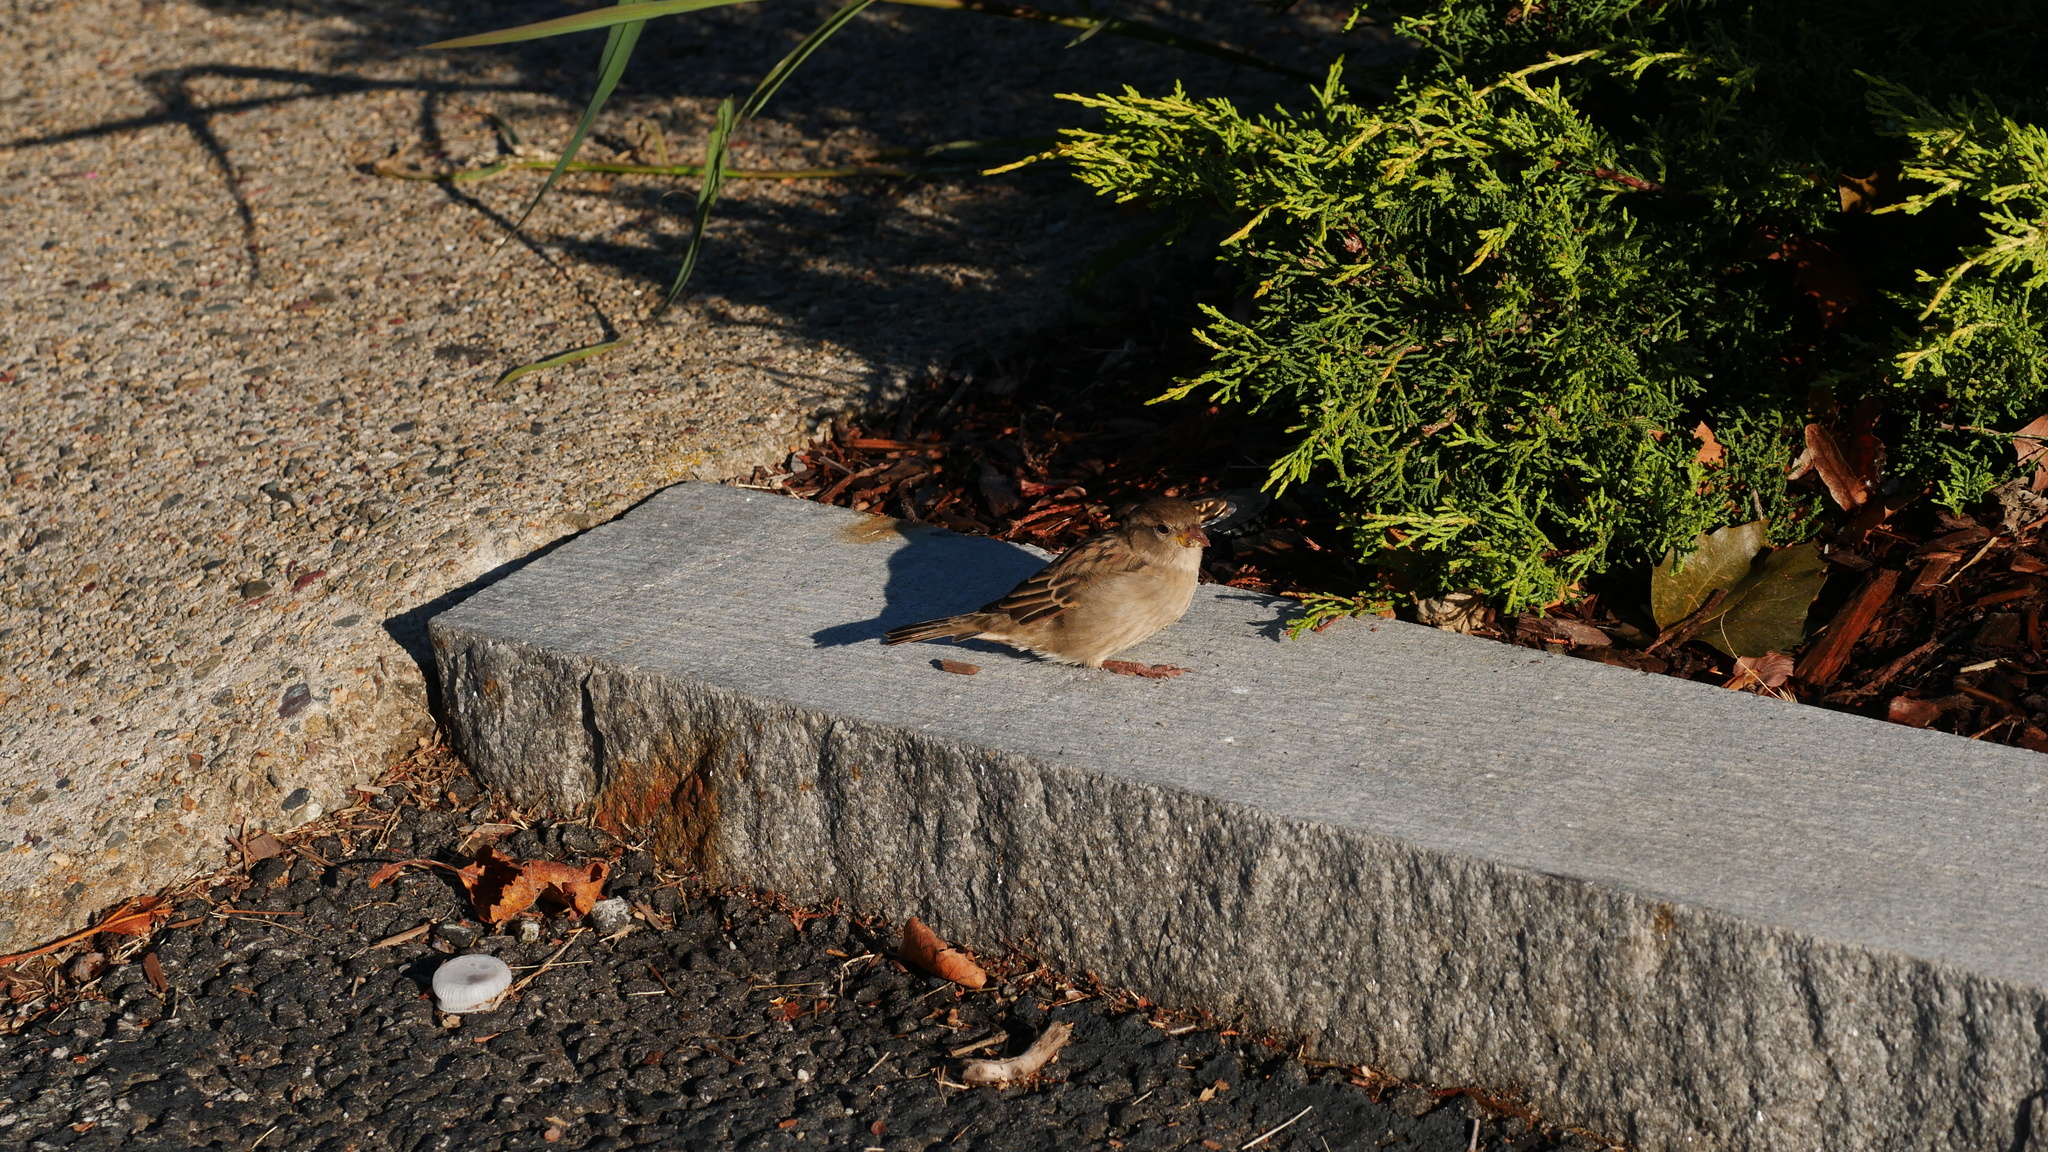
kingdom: Animalia
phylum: Chordata
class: Aves
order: Passeriformes
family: Passeridae
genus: Passer
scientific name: Passer domesticus
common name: House sparrow
